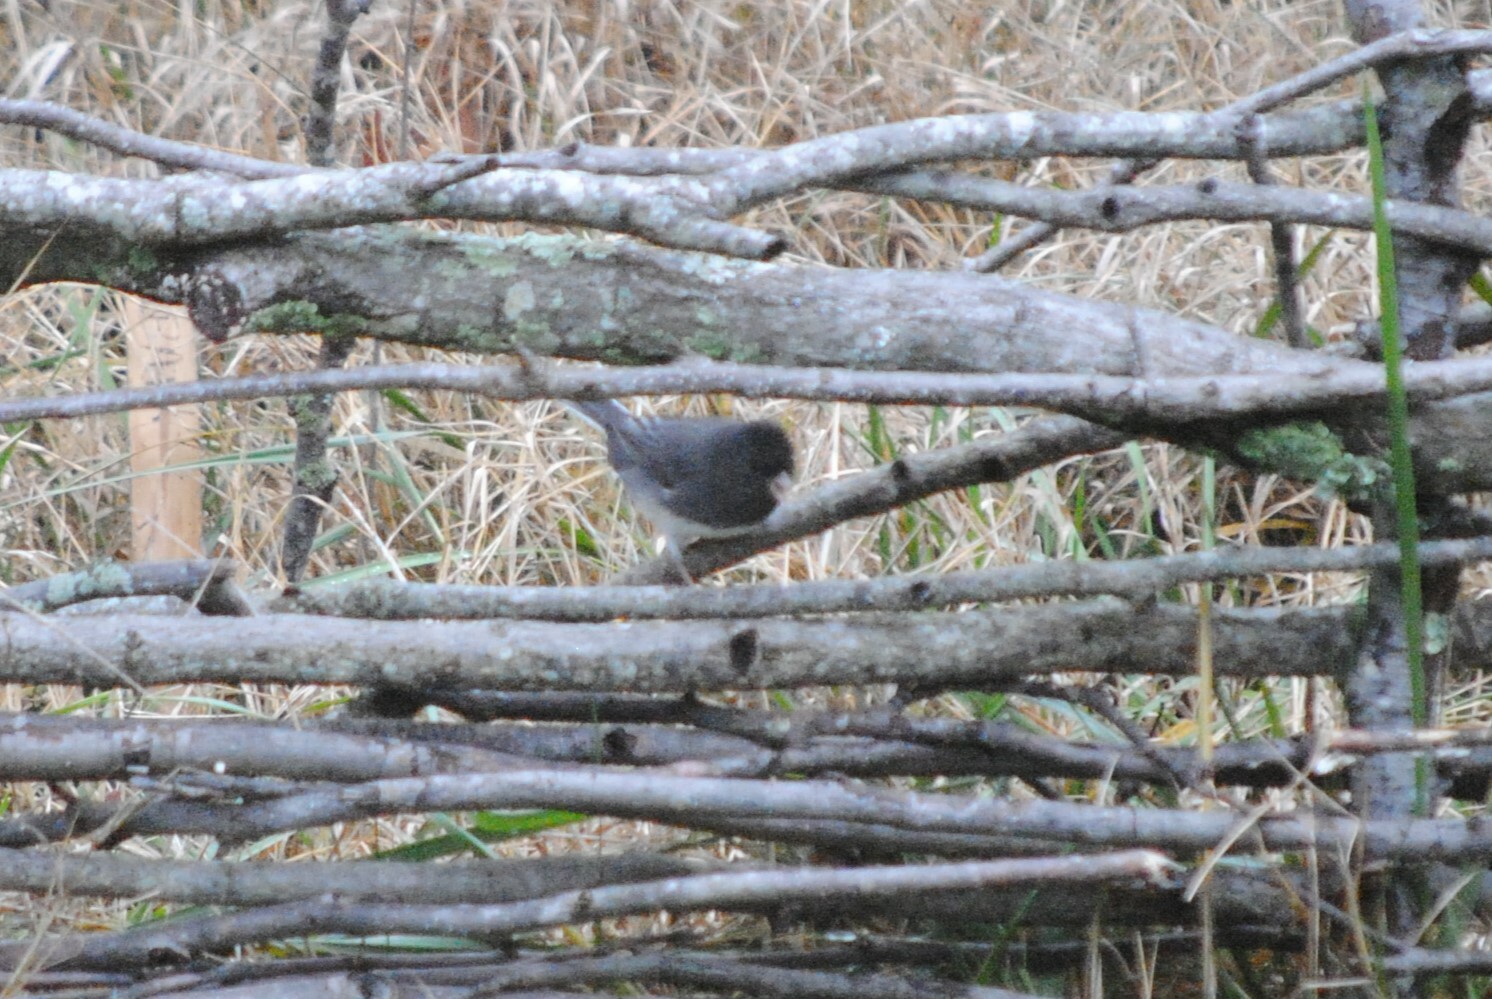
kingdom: Animalia
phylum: Chordata
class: Aves
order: Passeriformes
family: Passerellidae
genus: Junco
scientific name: Junco hyemalis
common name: Dark-eyed junco
